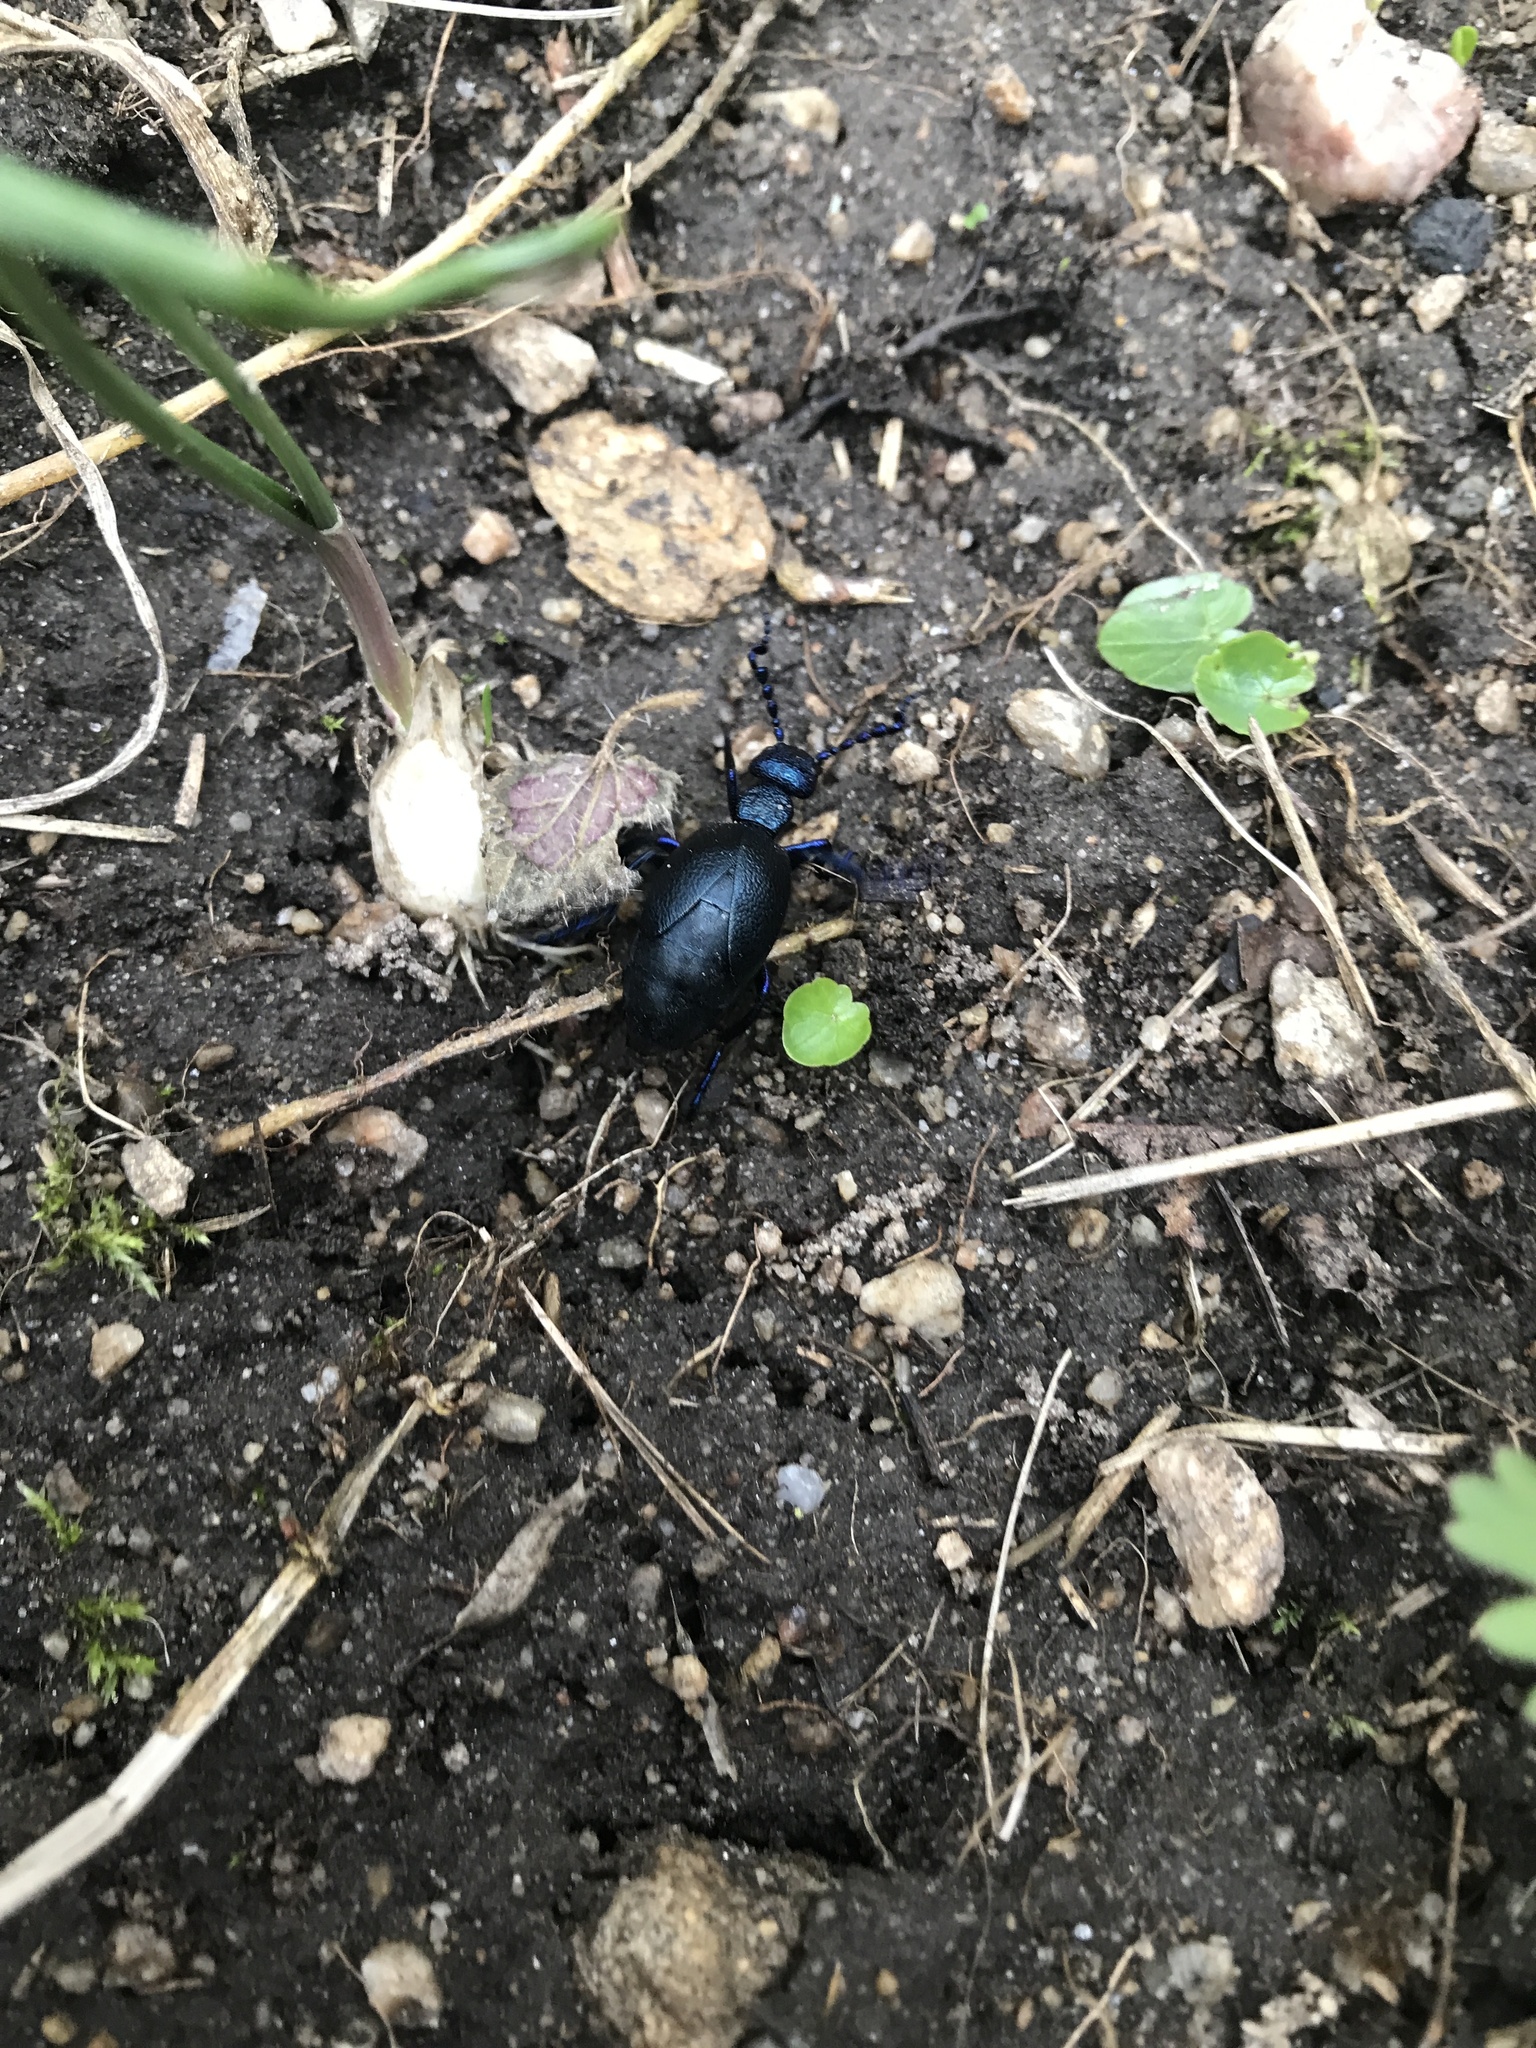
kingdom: Animalia
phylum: Arthropoda
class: Insecta
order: Coleoptera
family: Meloidae
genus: Meloe
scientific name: Meloe proscarabaeus
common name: Black oil-beetle
